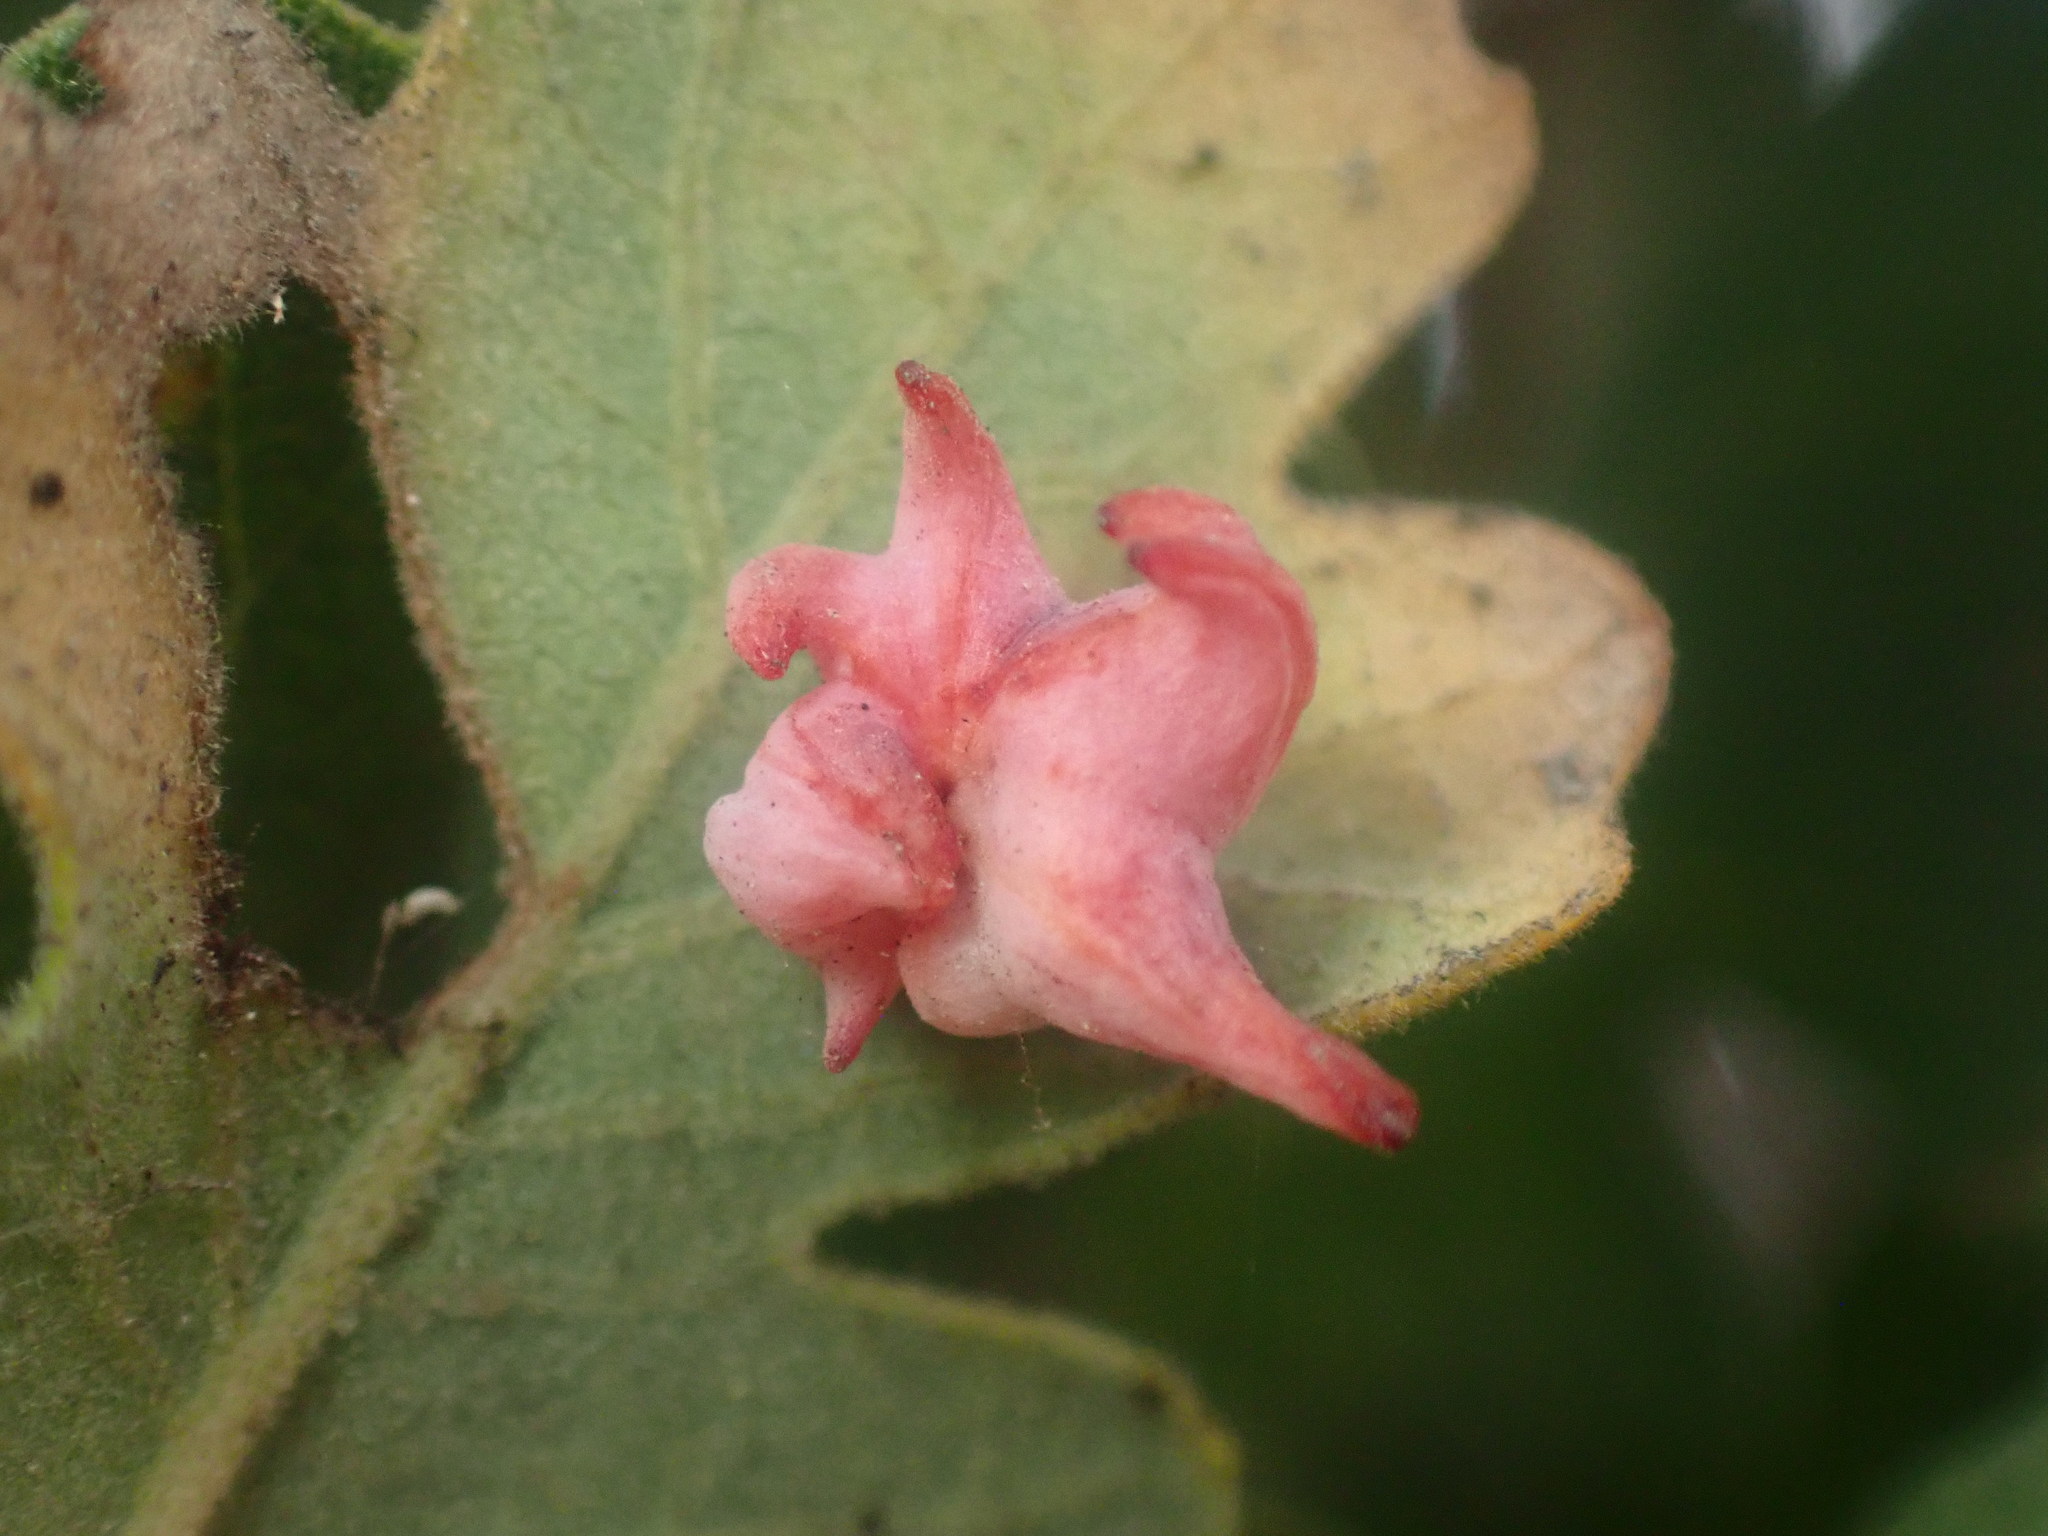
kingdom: Animalia
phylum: Arthropoda
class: Insecta
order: Hymenoptera
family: Cynipidae
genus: Cynips
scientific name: Cynips douglasi
